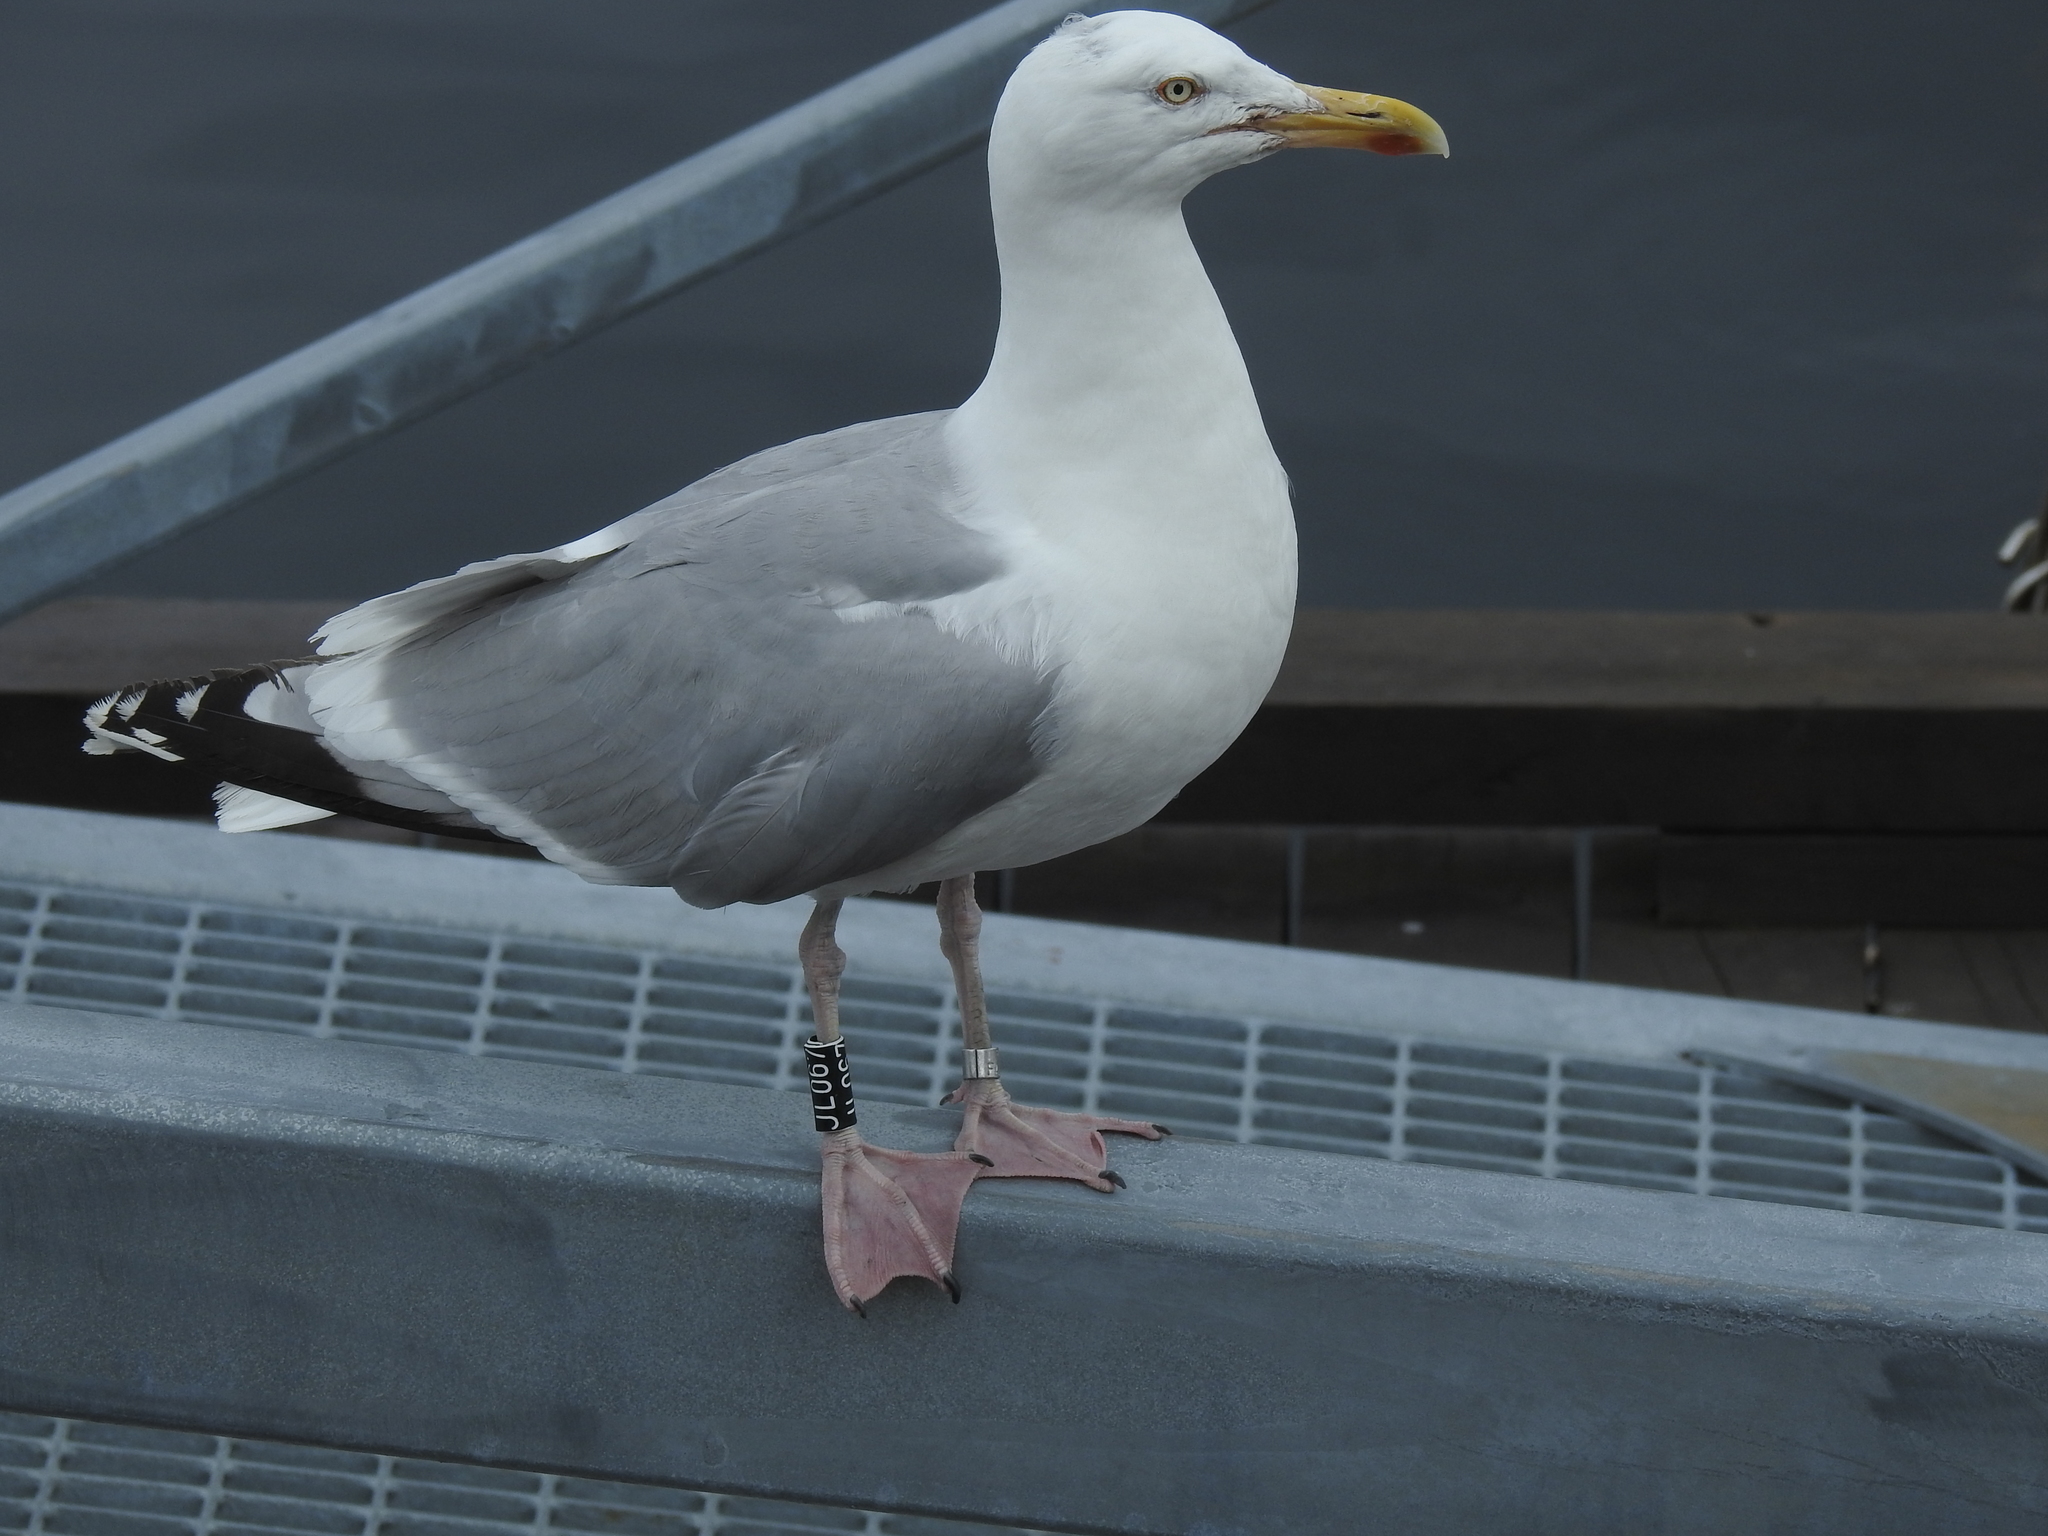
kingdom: Animalia
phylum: Chordata
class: Aves
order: Charadriiformes
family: Laridae
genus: Larus
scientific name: Larus argentatus
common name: Herring gull
